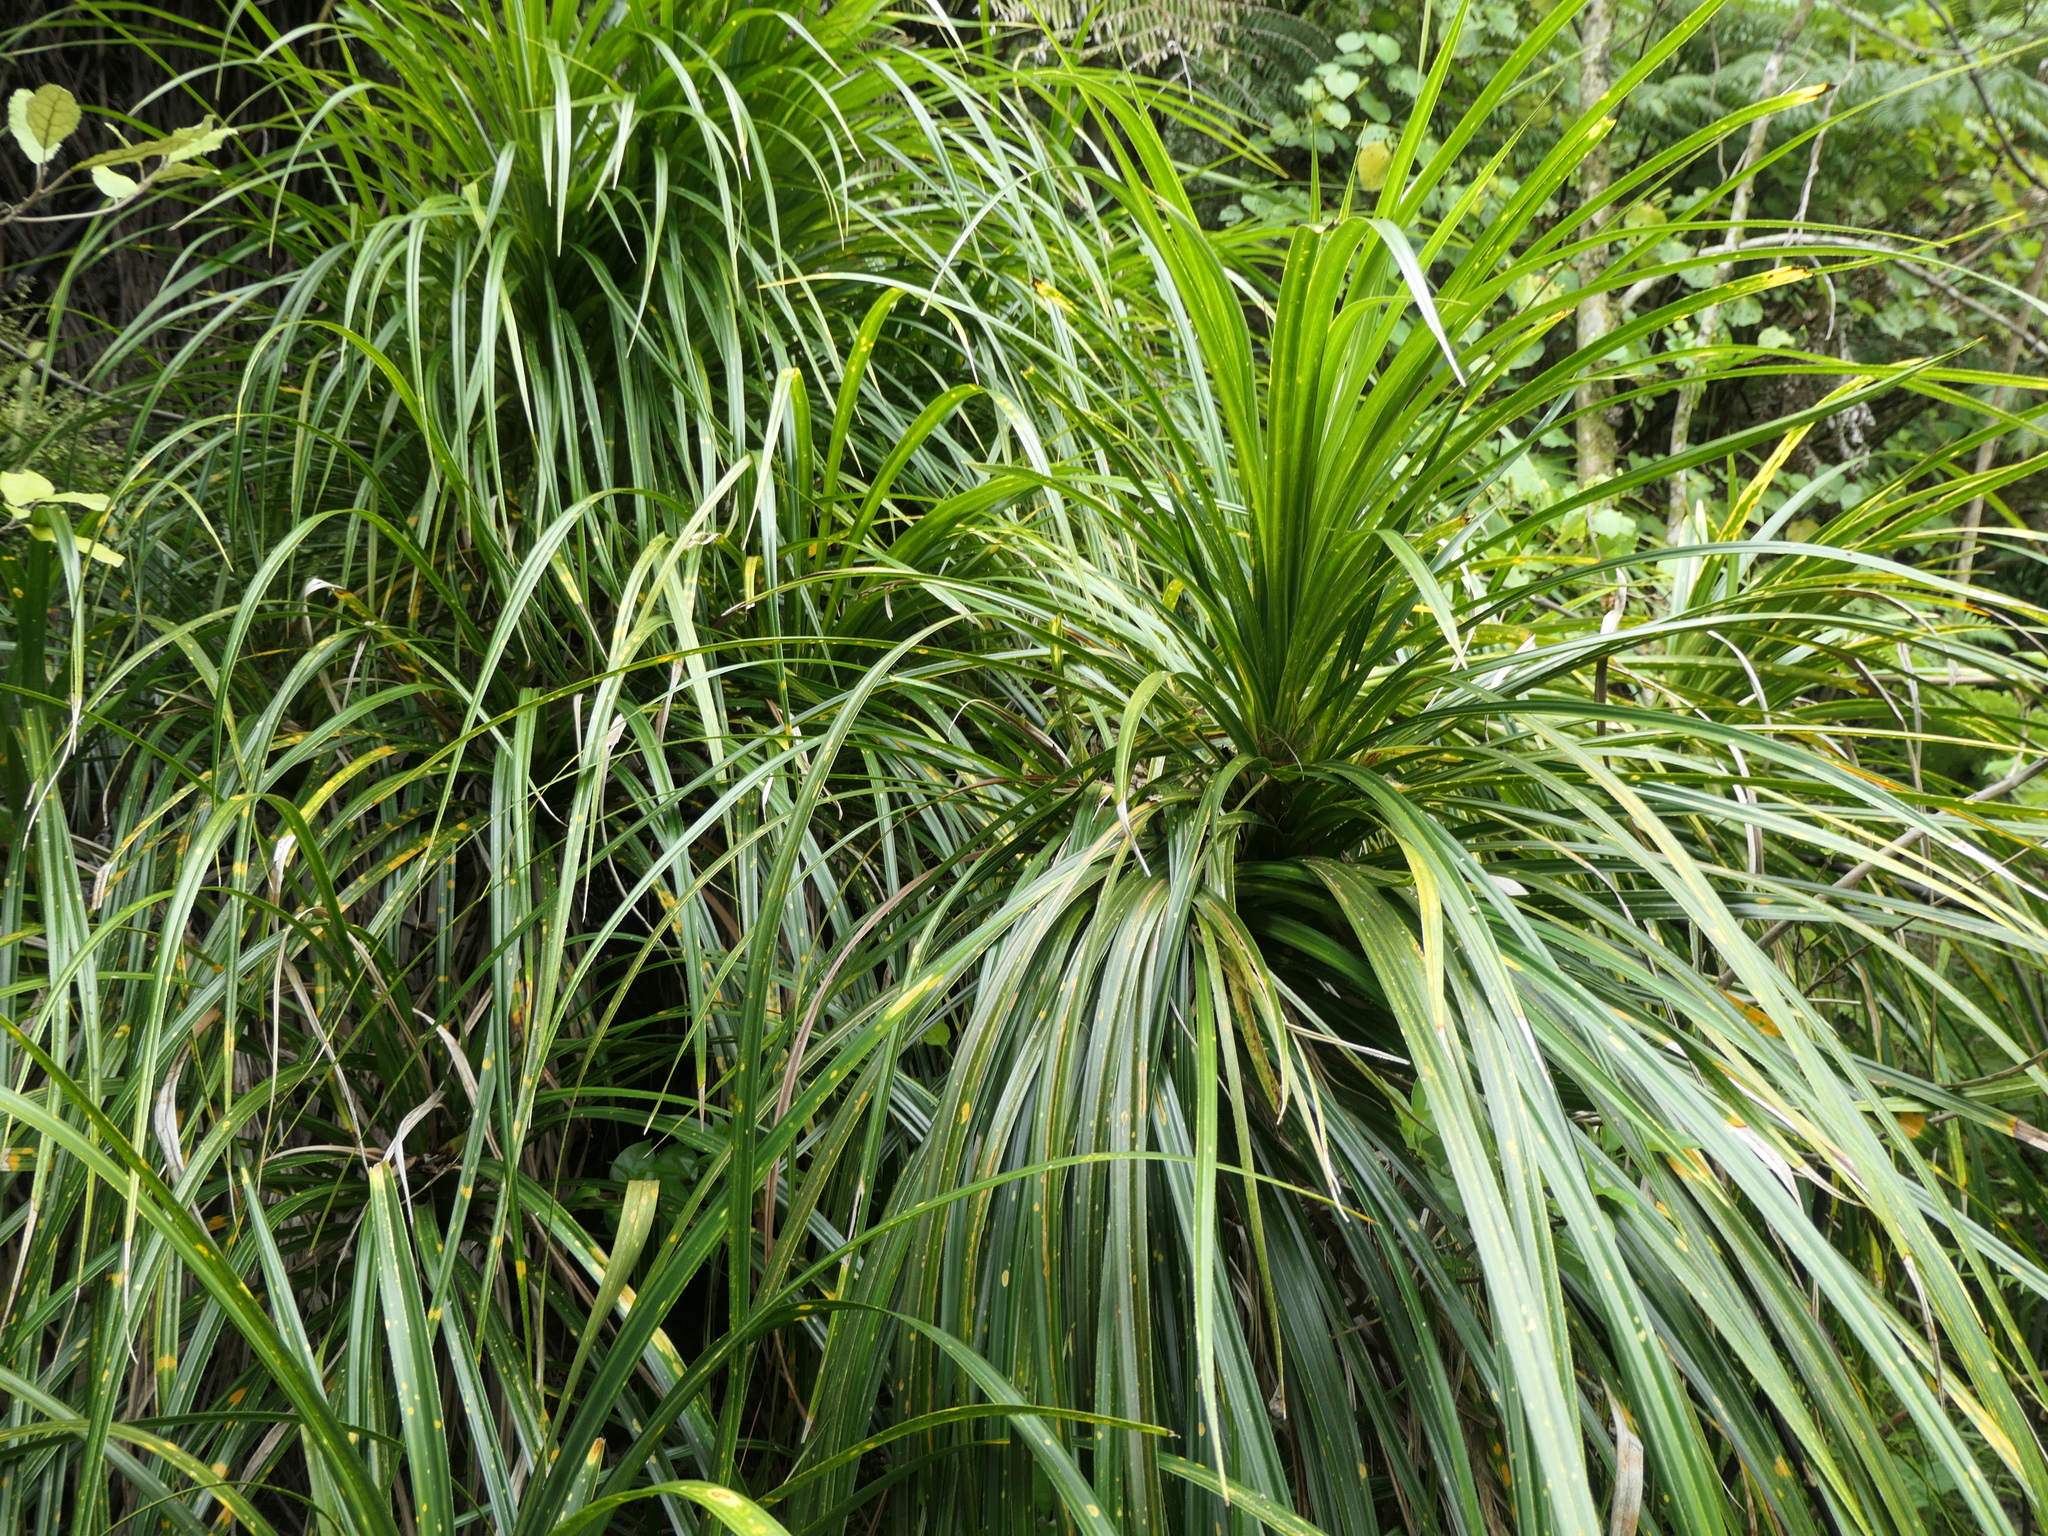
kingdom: Plantae
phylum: Tracheophyta
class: Liliopsida
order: Pandanales
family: Pandanaceae
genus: Freycinetia
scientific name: Freycinetia banksii
